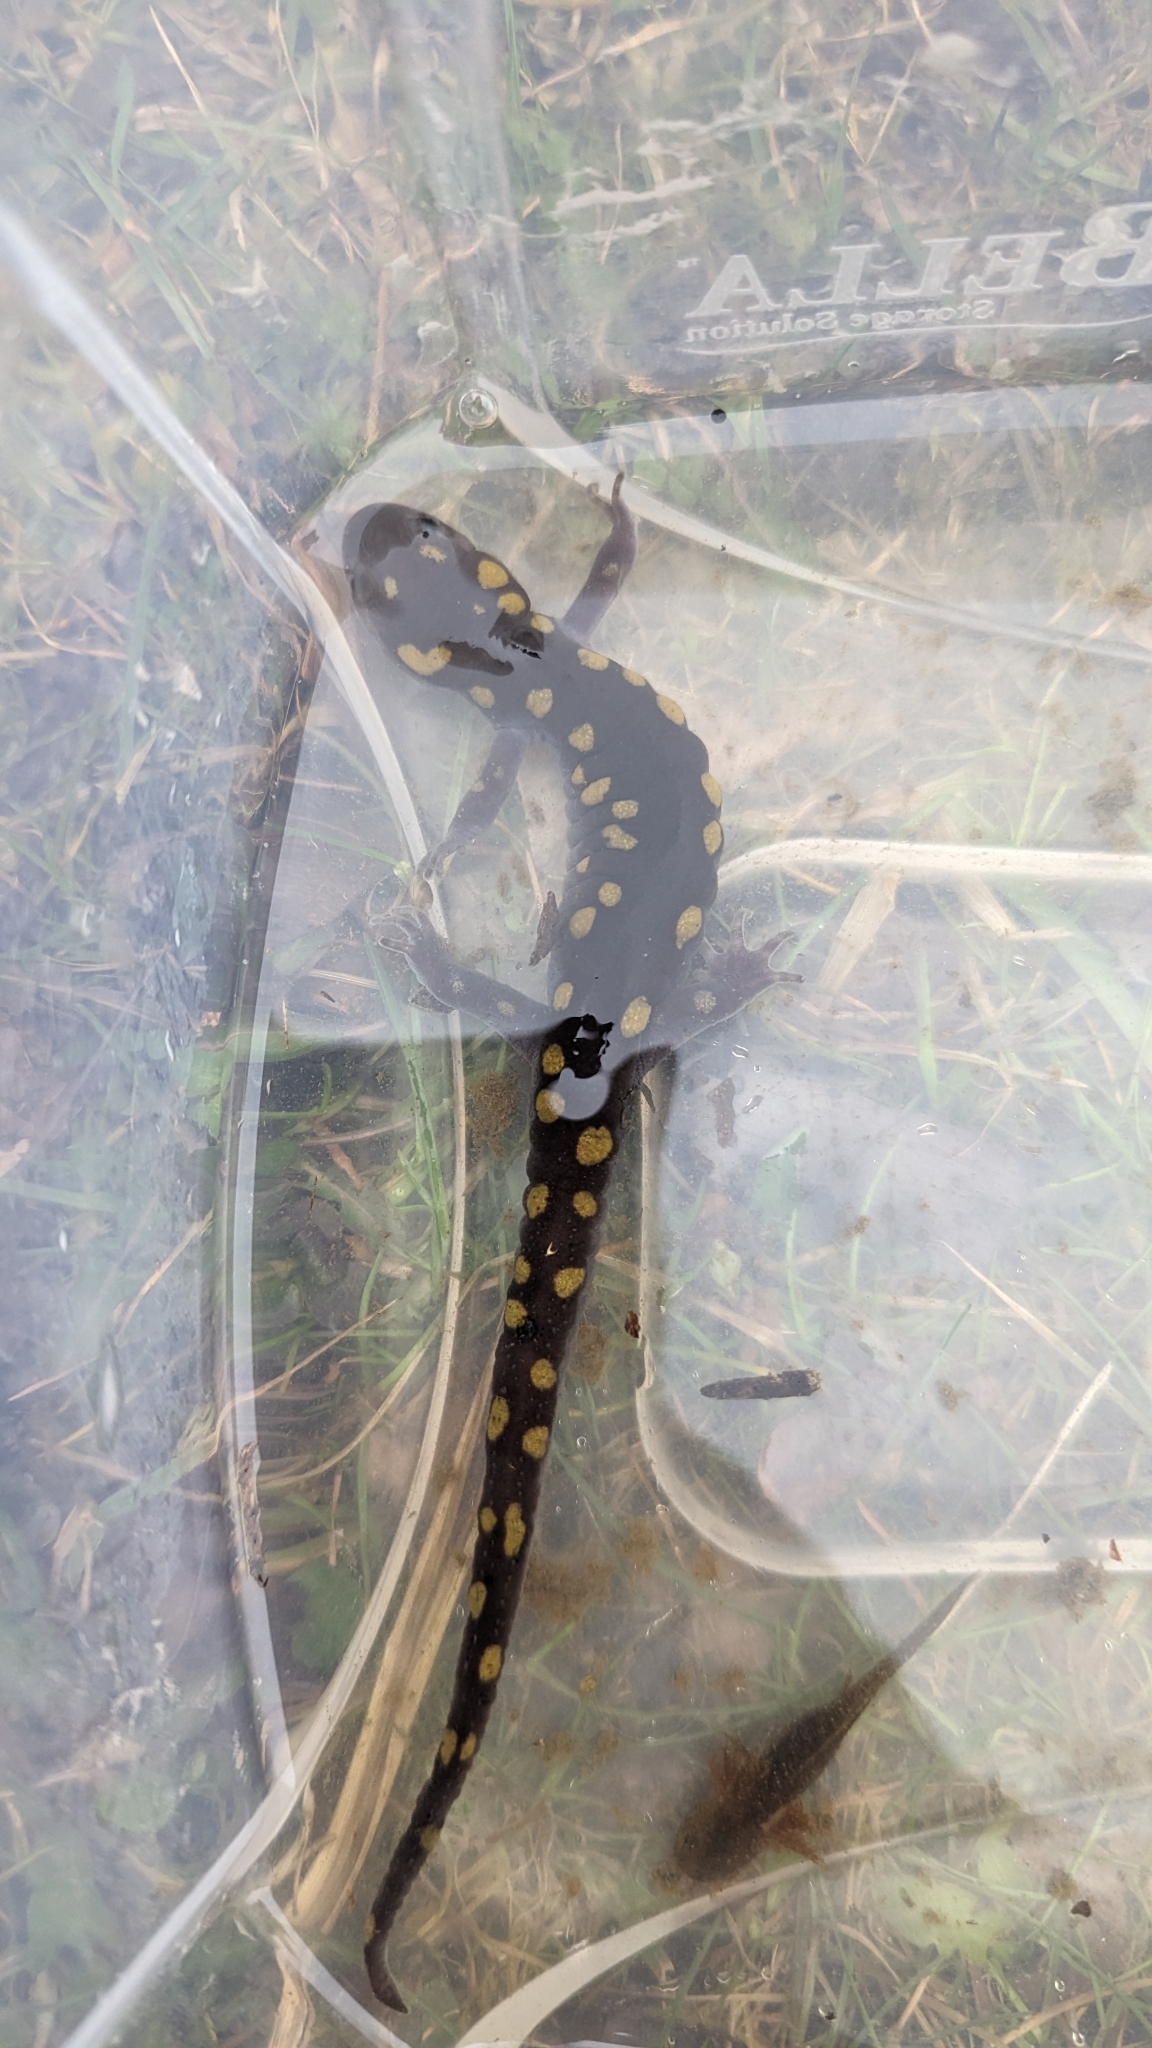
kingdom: Animalia
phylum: Chordata
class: Amphibia
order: Caudata
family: Ambystomatidae
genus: Ambystoma
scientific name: Ambystoma maculatum
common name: Spotted salamander
